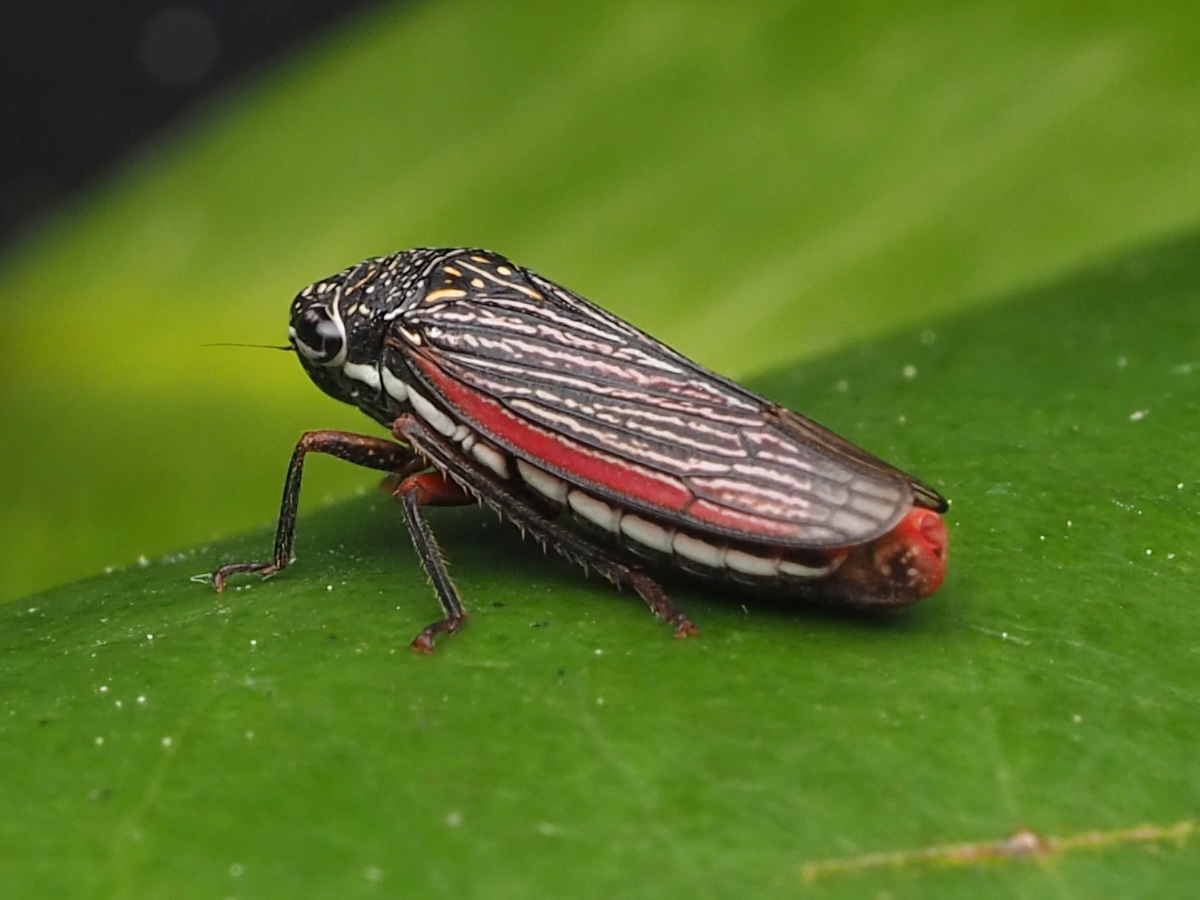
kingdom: Animalia
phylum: Arthropoda
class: Insecta
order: Hemiptera
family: Cicadellidae
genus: Cuerna
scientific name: Cuerna costalis
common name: Lateral-lined sharpshooter
